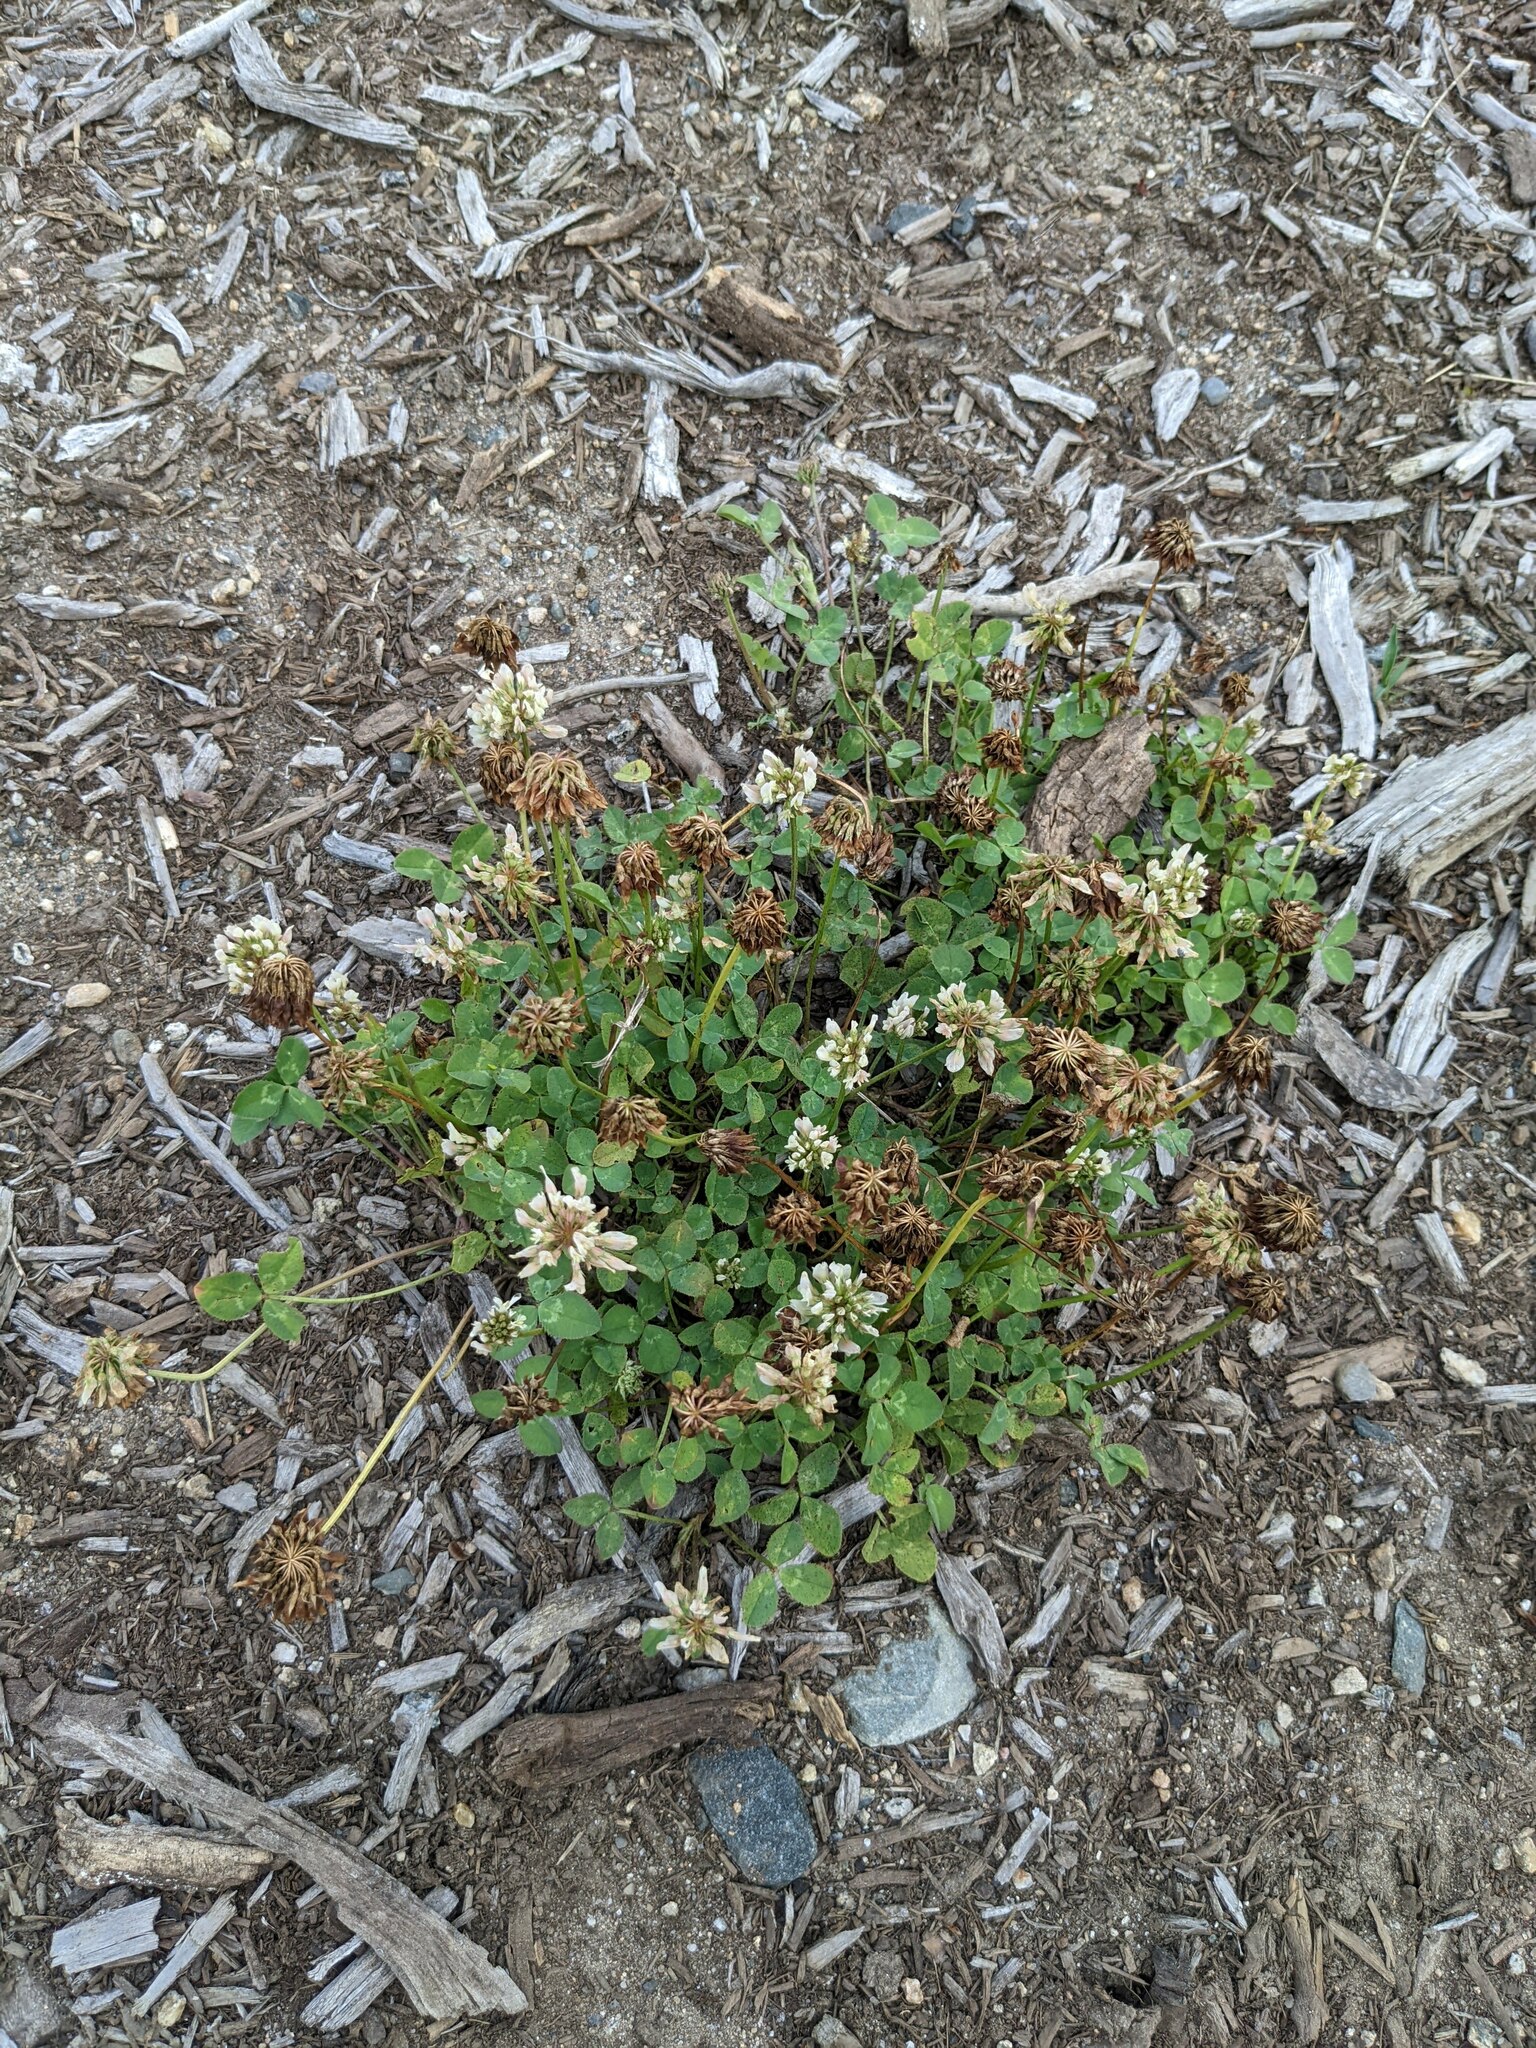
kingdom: Plantae
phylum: Tracheophyta
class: Magnoliopsida
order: Fabales
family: Fabaceae
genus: Trifolium
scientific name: Trifolium repens
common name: White clover
